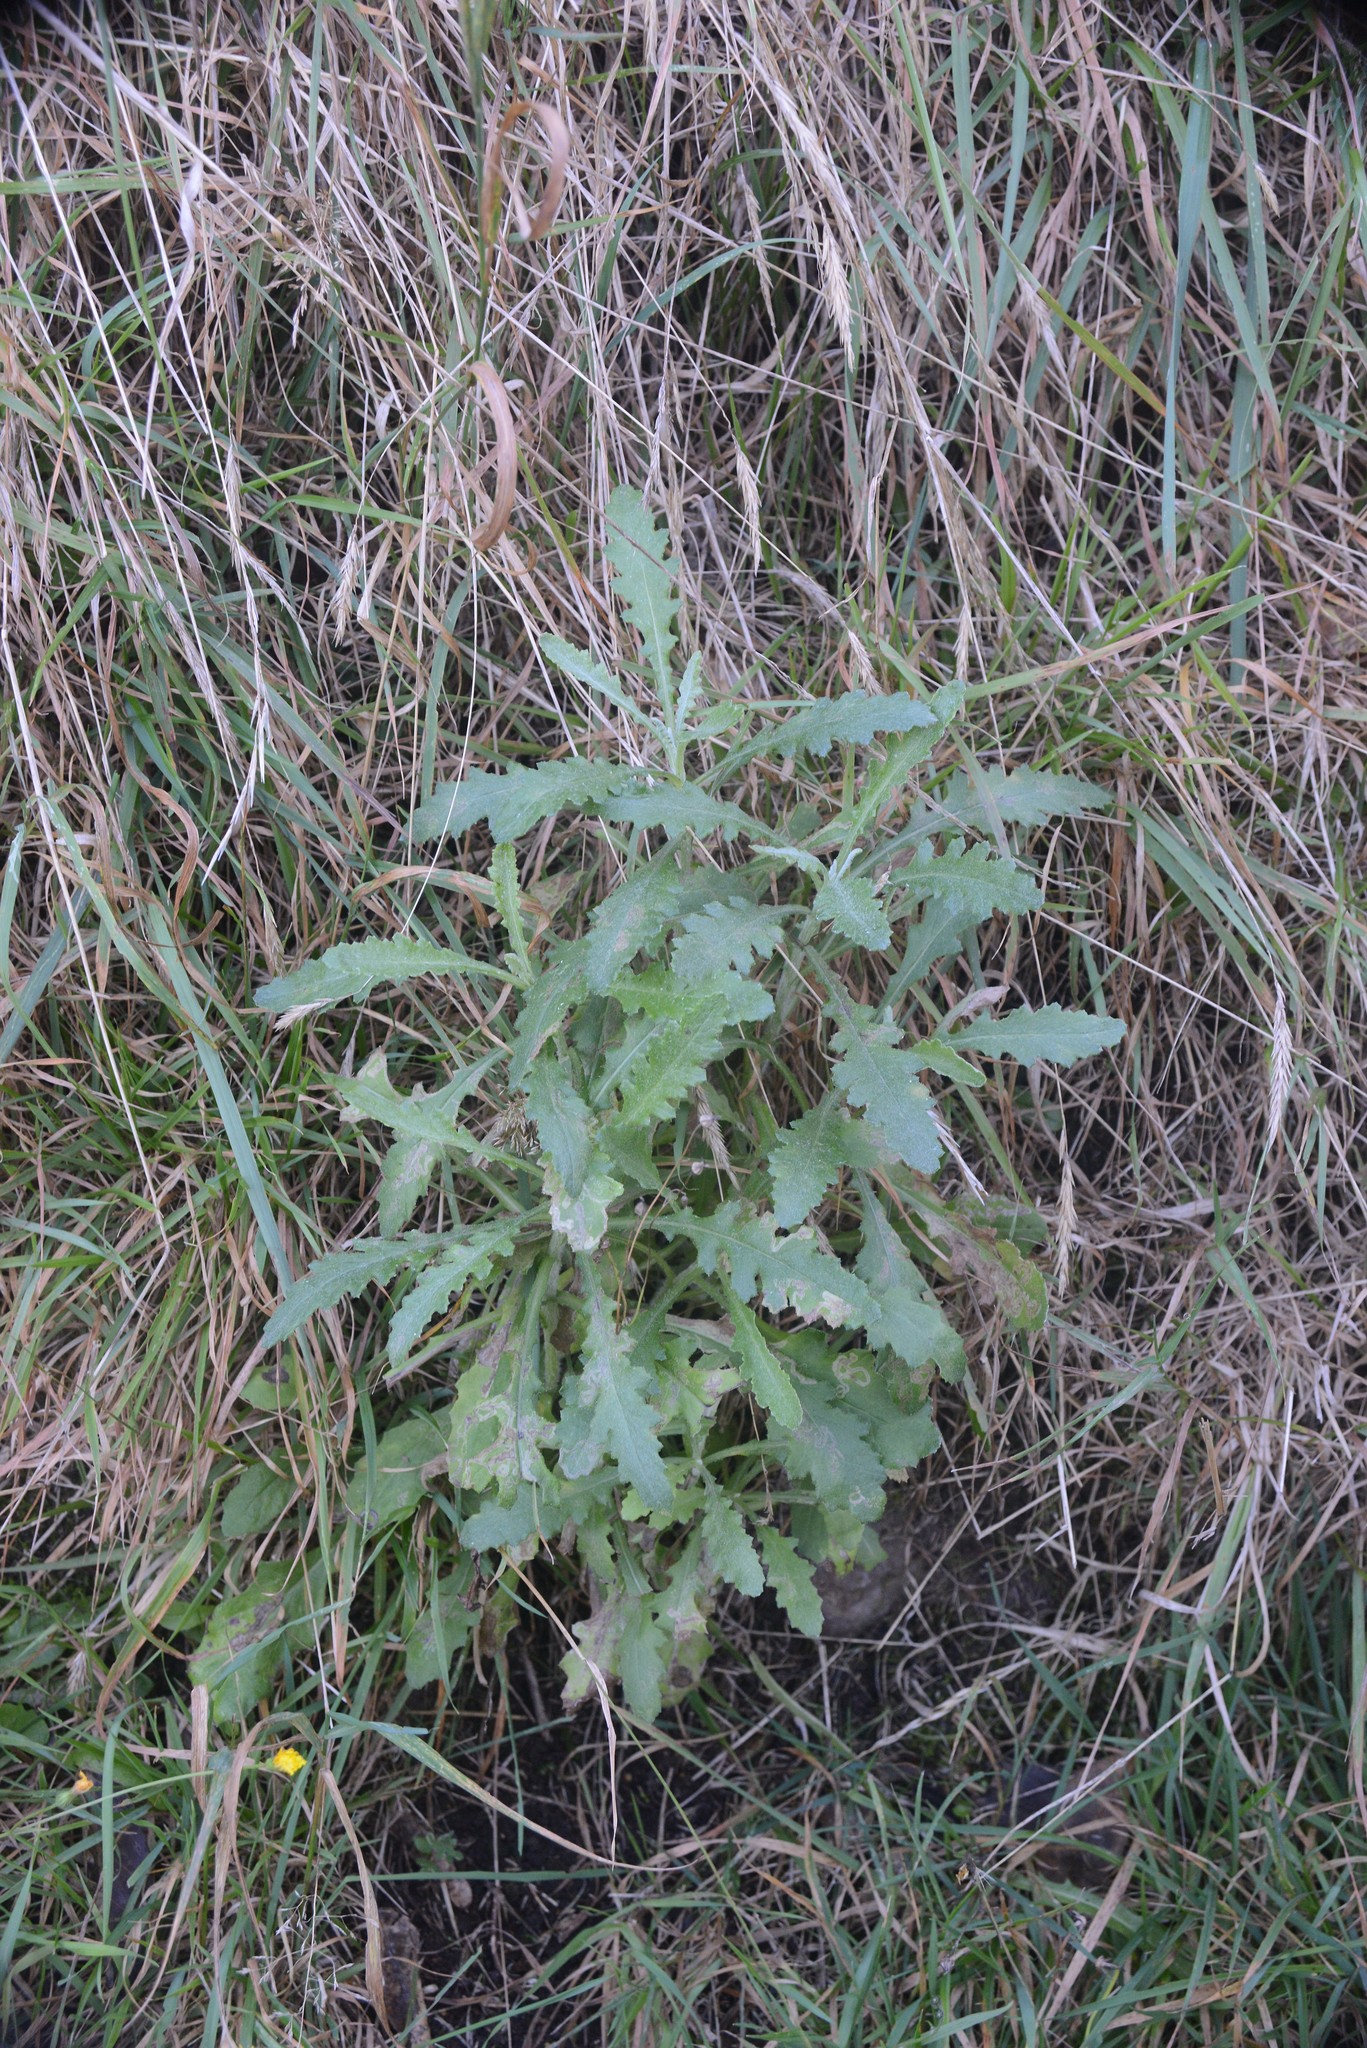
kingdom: Plantae
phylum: Tracheophyta
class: Magnoliopsida
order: Asterales
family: Asteraceae
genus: Senecio
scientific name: Senecio glomeratus
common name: Cutleaf burnweed
